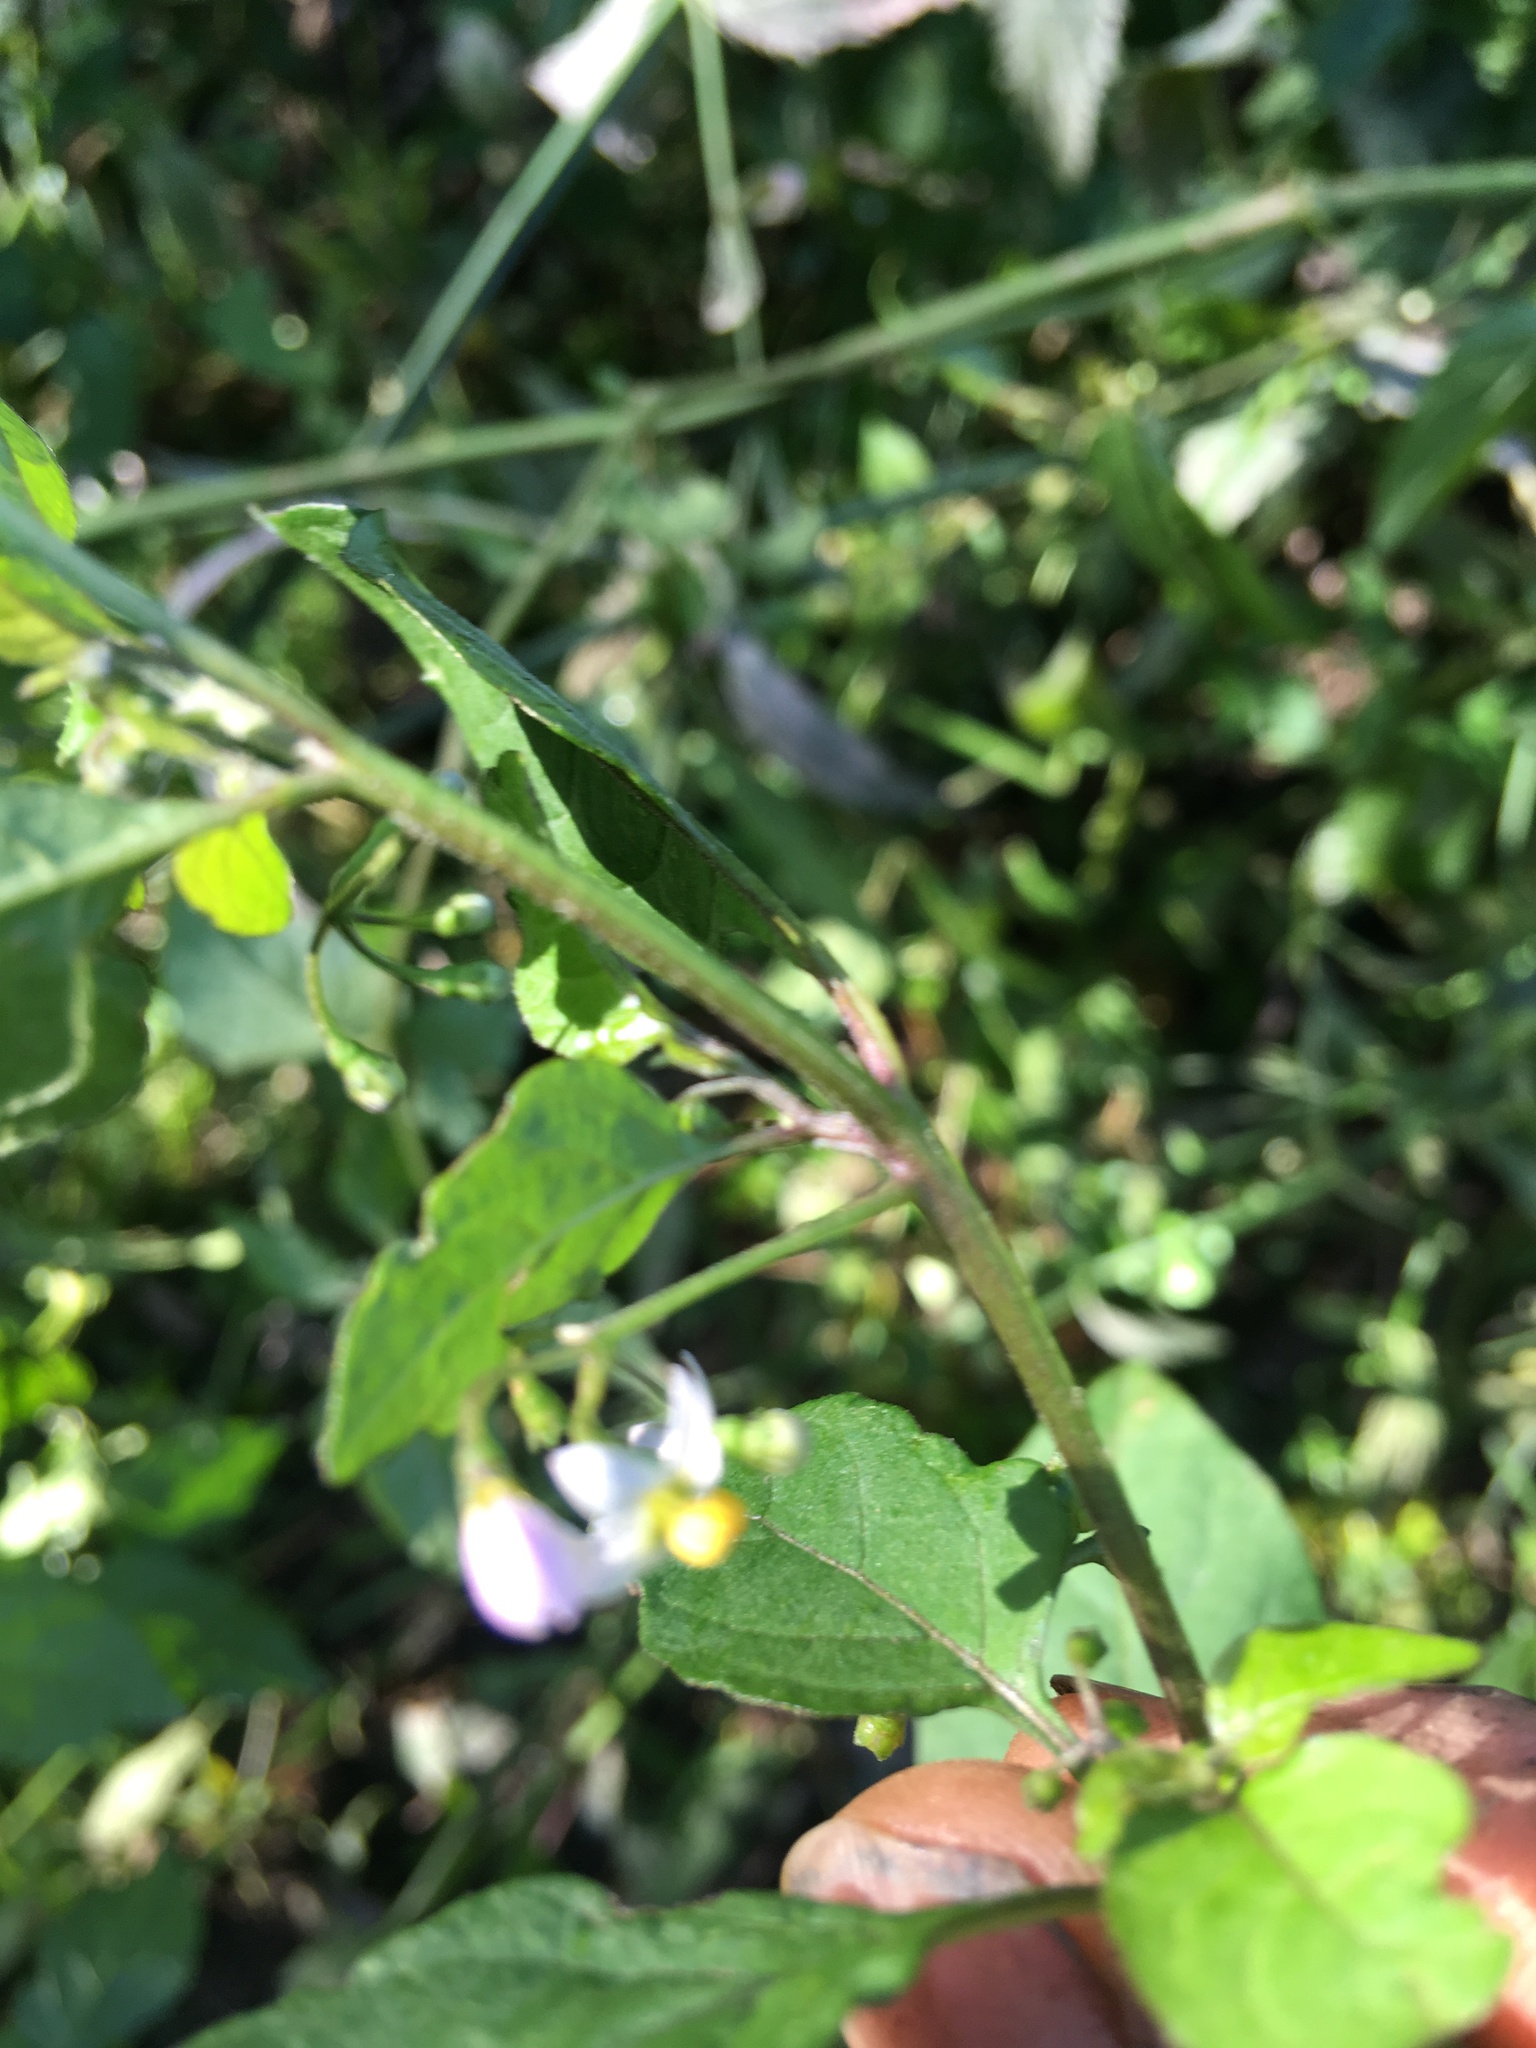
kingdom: Plantae
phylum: Tracheophyta
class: Magnoliopsida
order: Solanales
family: Solanaceae
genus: Solanum
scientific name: Solanum americanum
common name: American black nightshade
